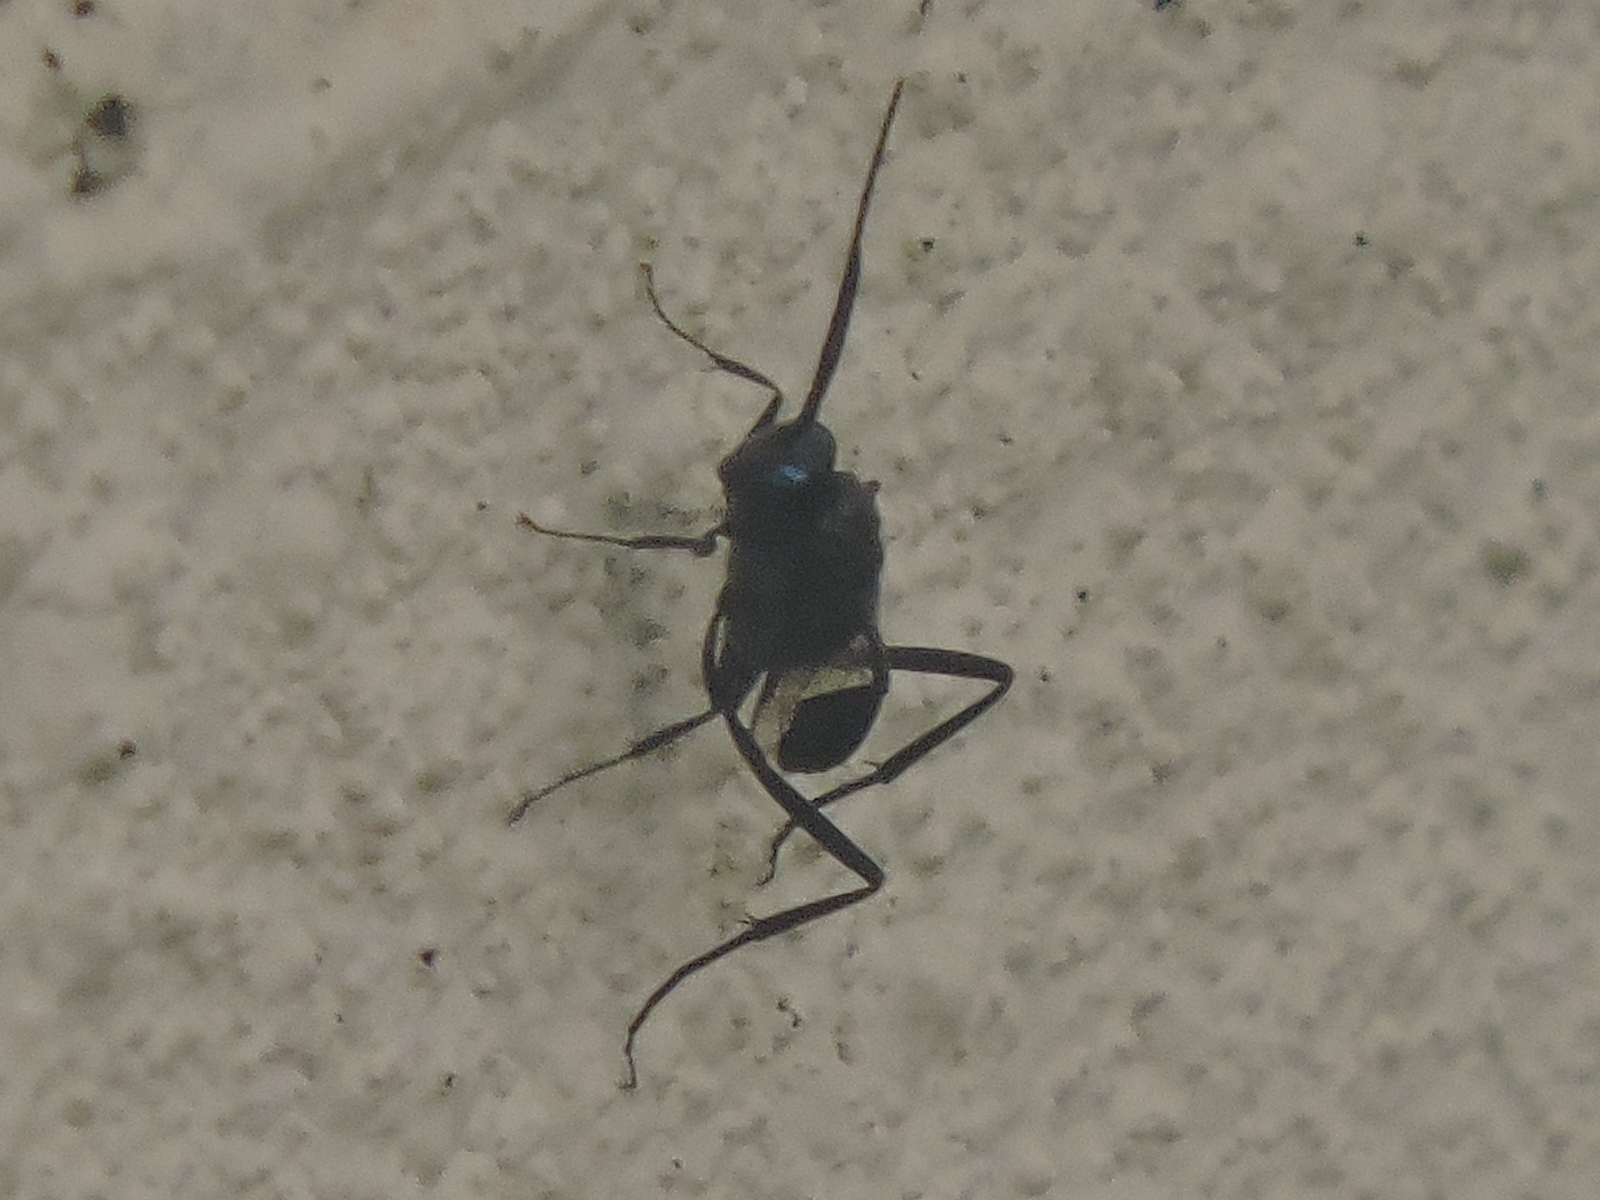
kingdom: Animalia
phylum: Arthropoda
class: Insecta
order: Hymenoptera
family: Evaniidae
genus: Evania
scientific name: Evania appendigaster
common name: Ensign wasp
